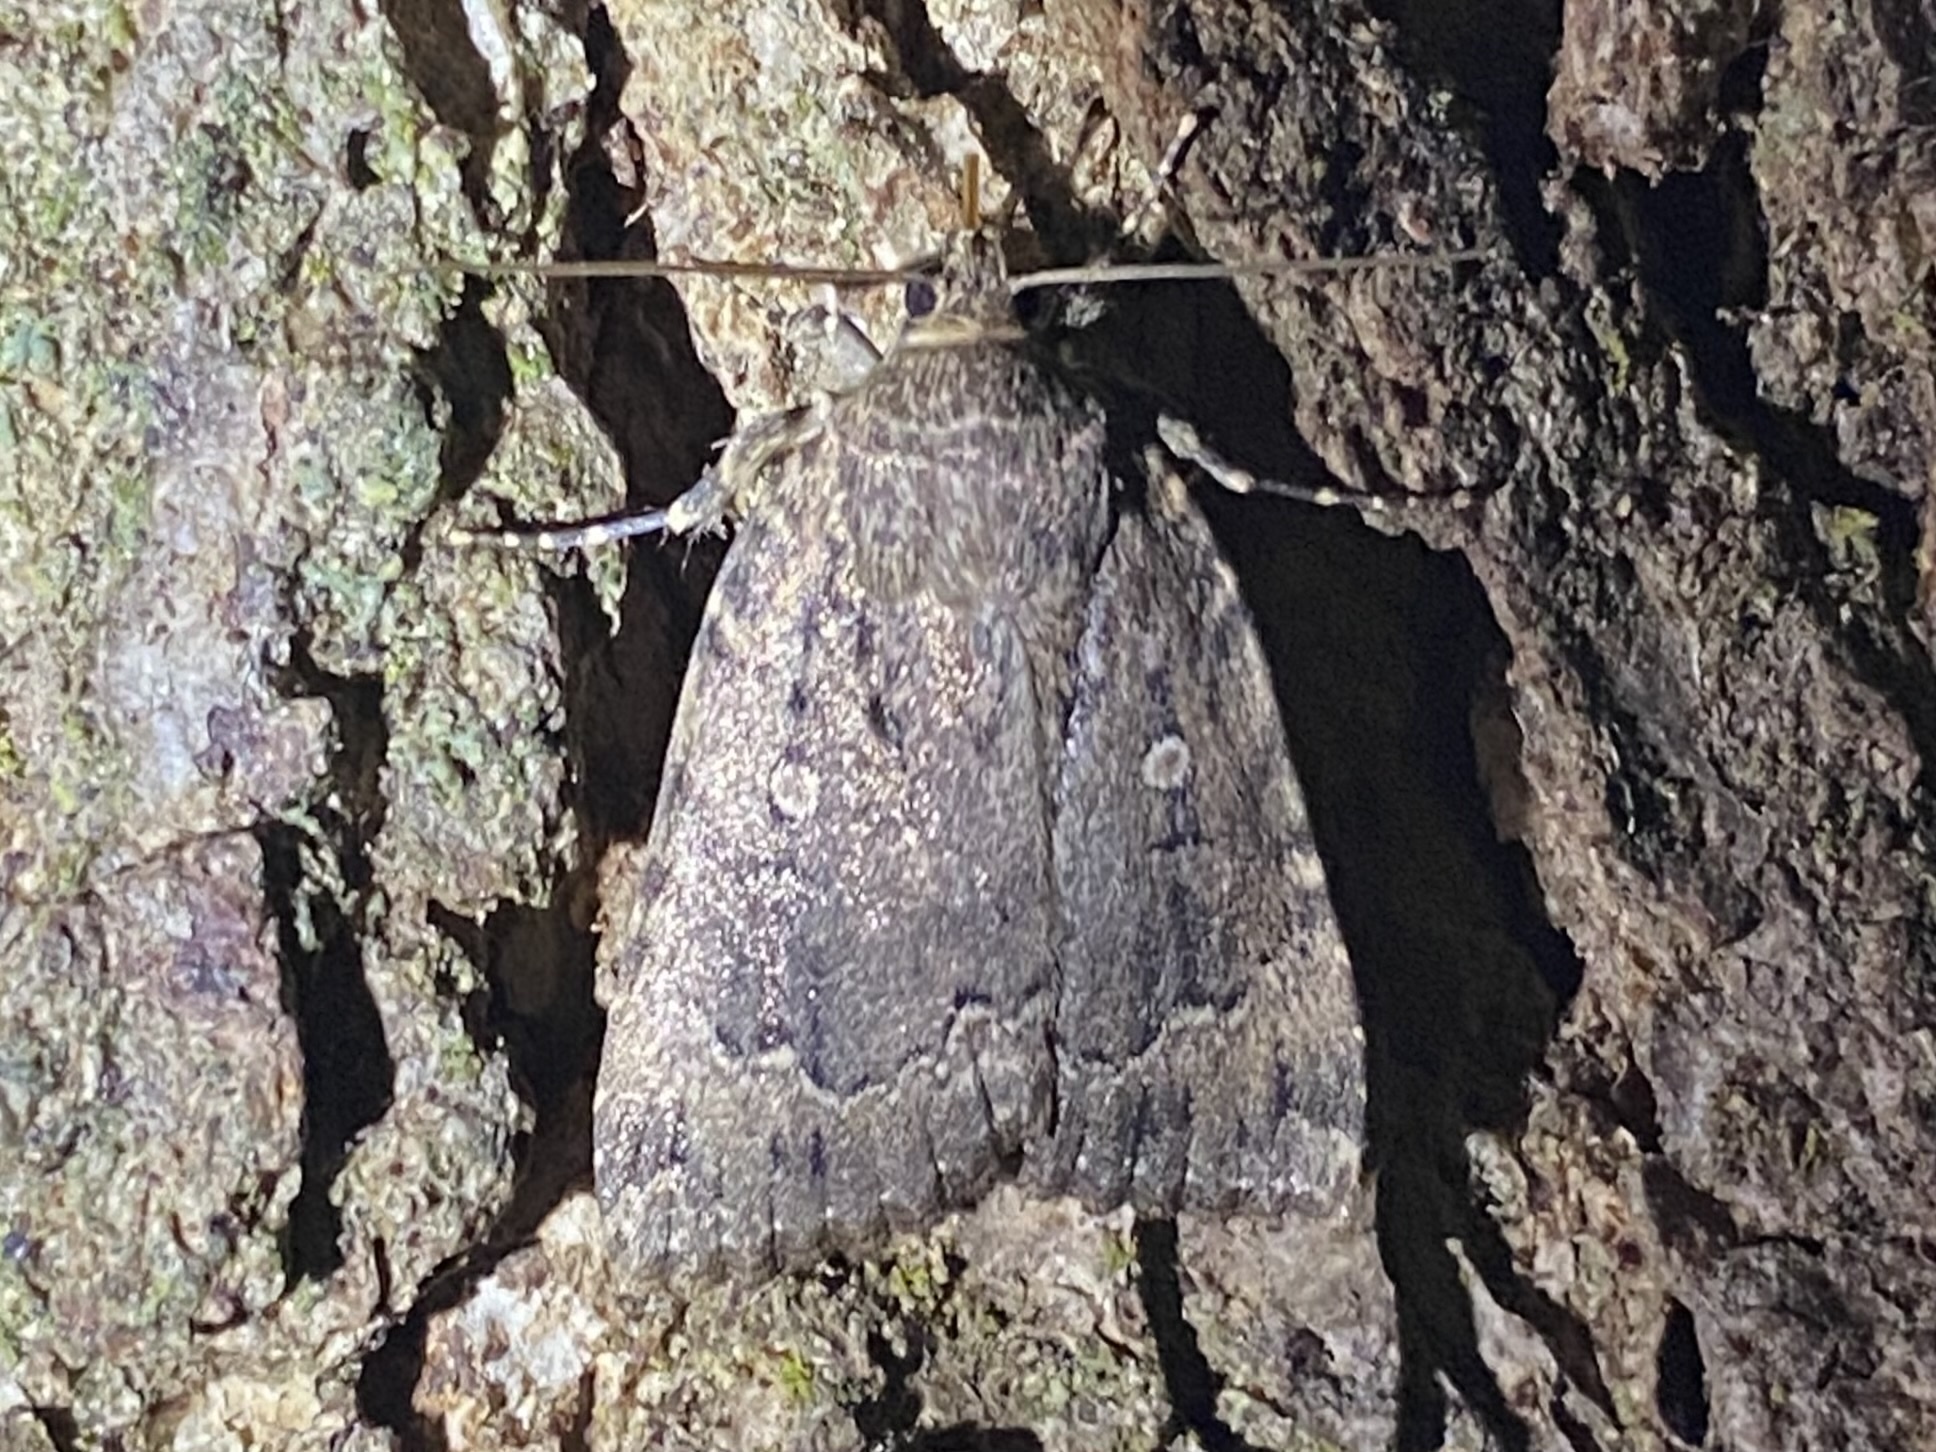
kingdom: Animalia
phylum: Arthropoda
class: Insecta
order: Lepidoptera
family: Noctuidae
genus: Amphipyra
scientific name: Amphipyra pyramidoides
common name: American copper underwing
